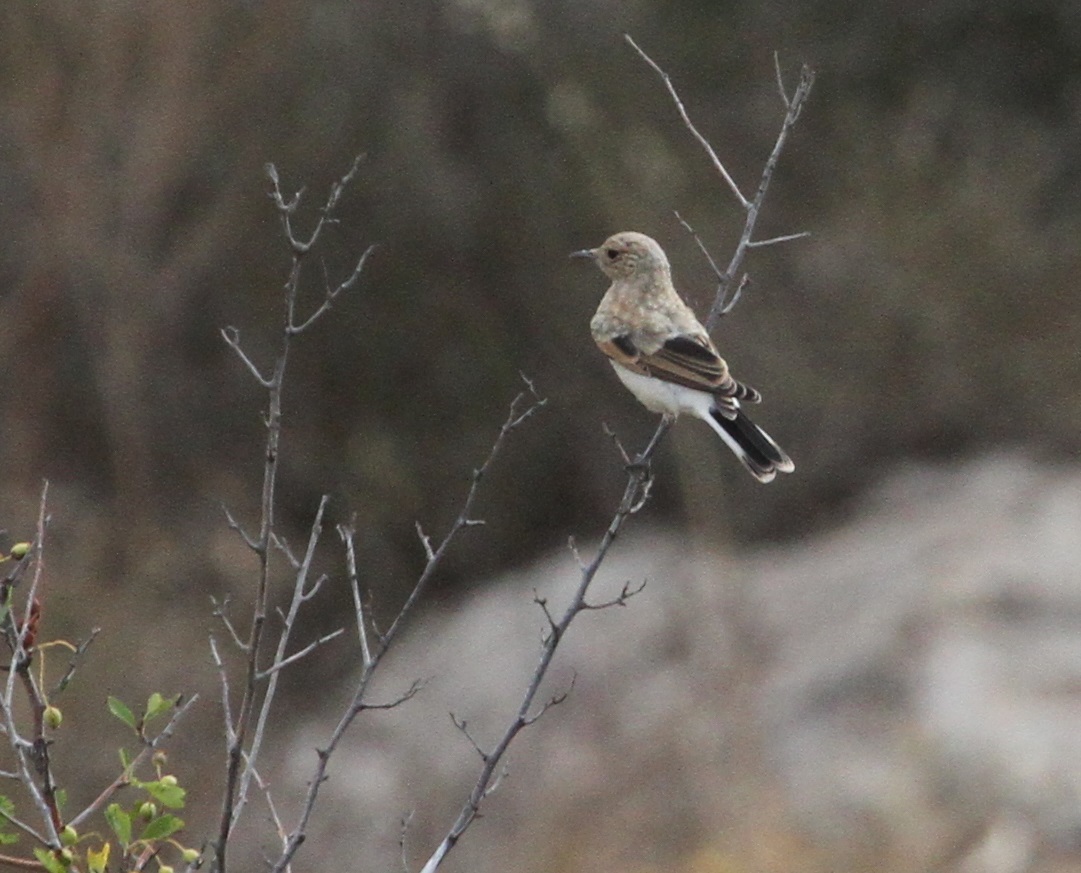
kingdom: Animalia
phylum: Chordata
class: Aves
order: Passeriformes
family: Muscicapidae
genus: Oenanthe
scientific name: Oenanthe hispanica
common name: Black-eared wheatear
